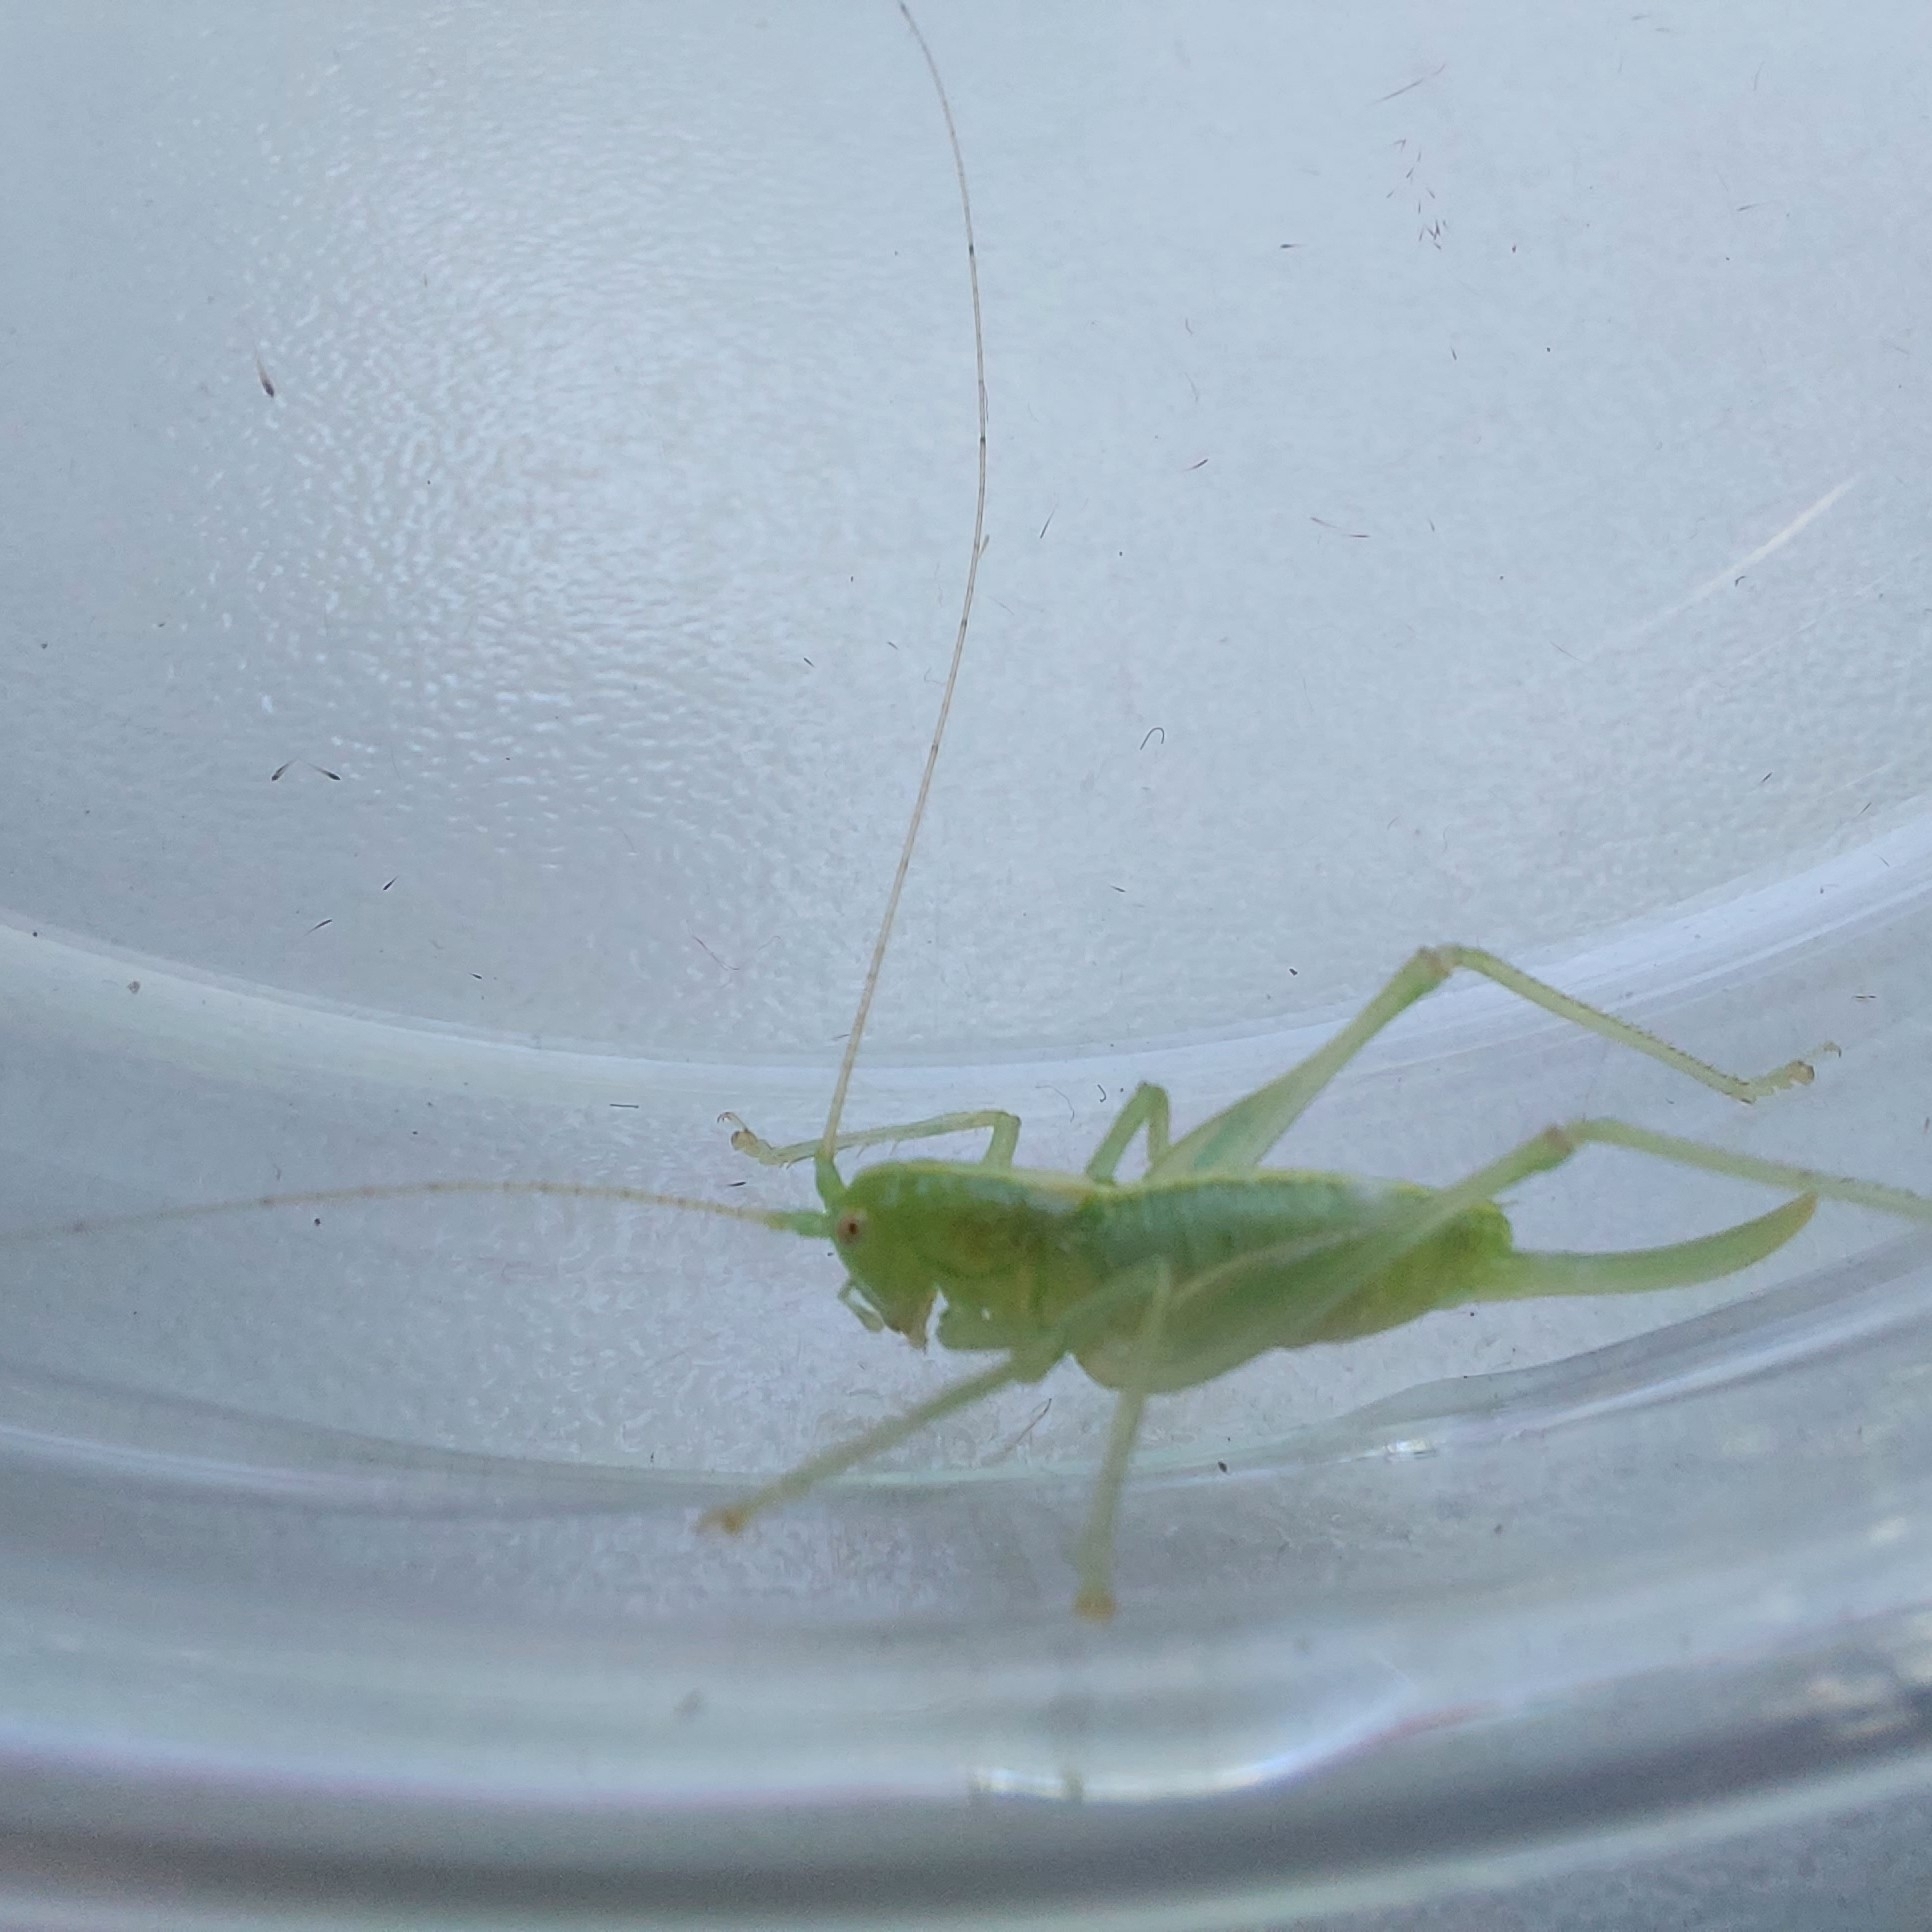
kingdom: Animalia
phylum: Arthropoda
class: Insecta
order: Orthoptera
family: Tettigoniidae
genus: Meconema
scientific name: Meconema meridionale
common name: Southern oak bush-cricket
